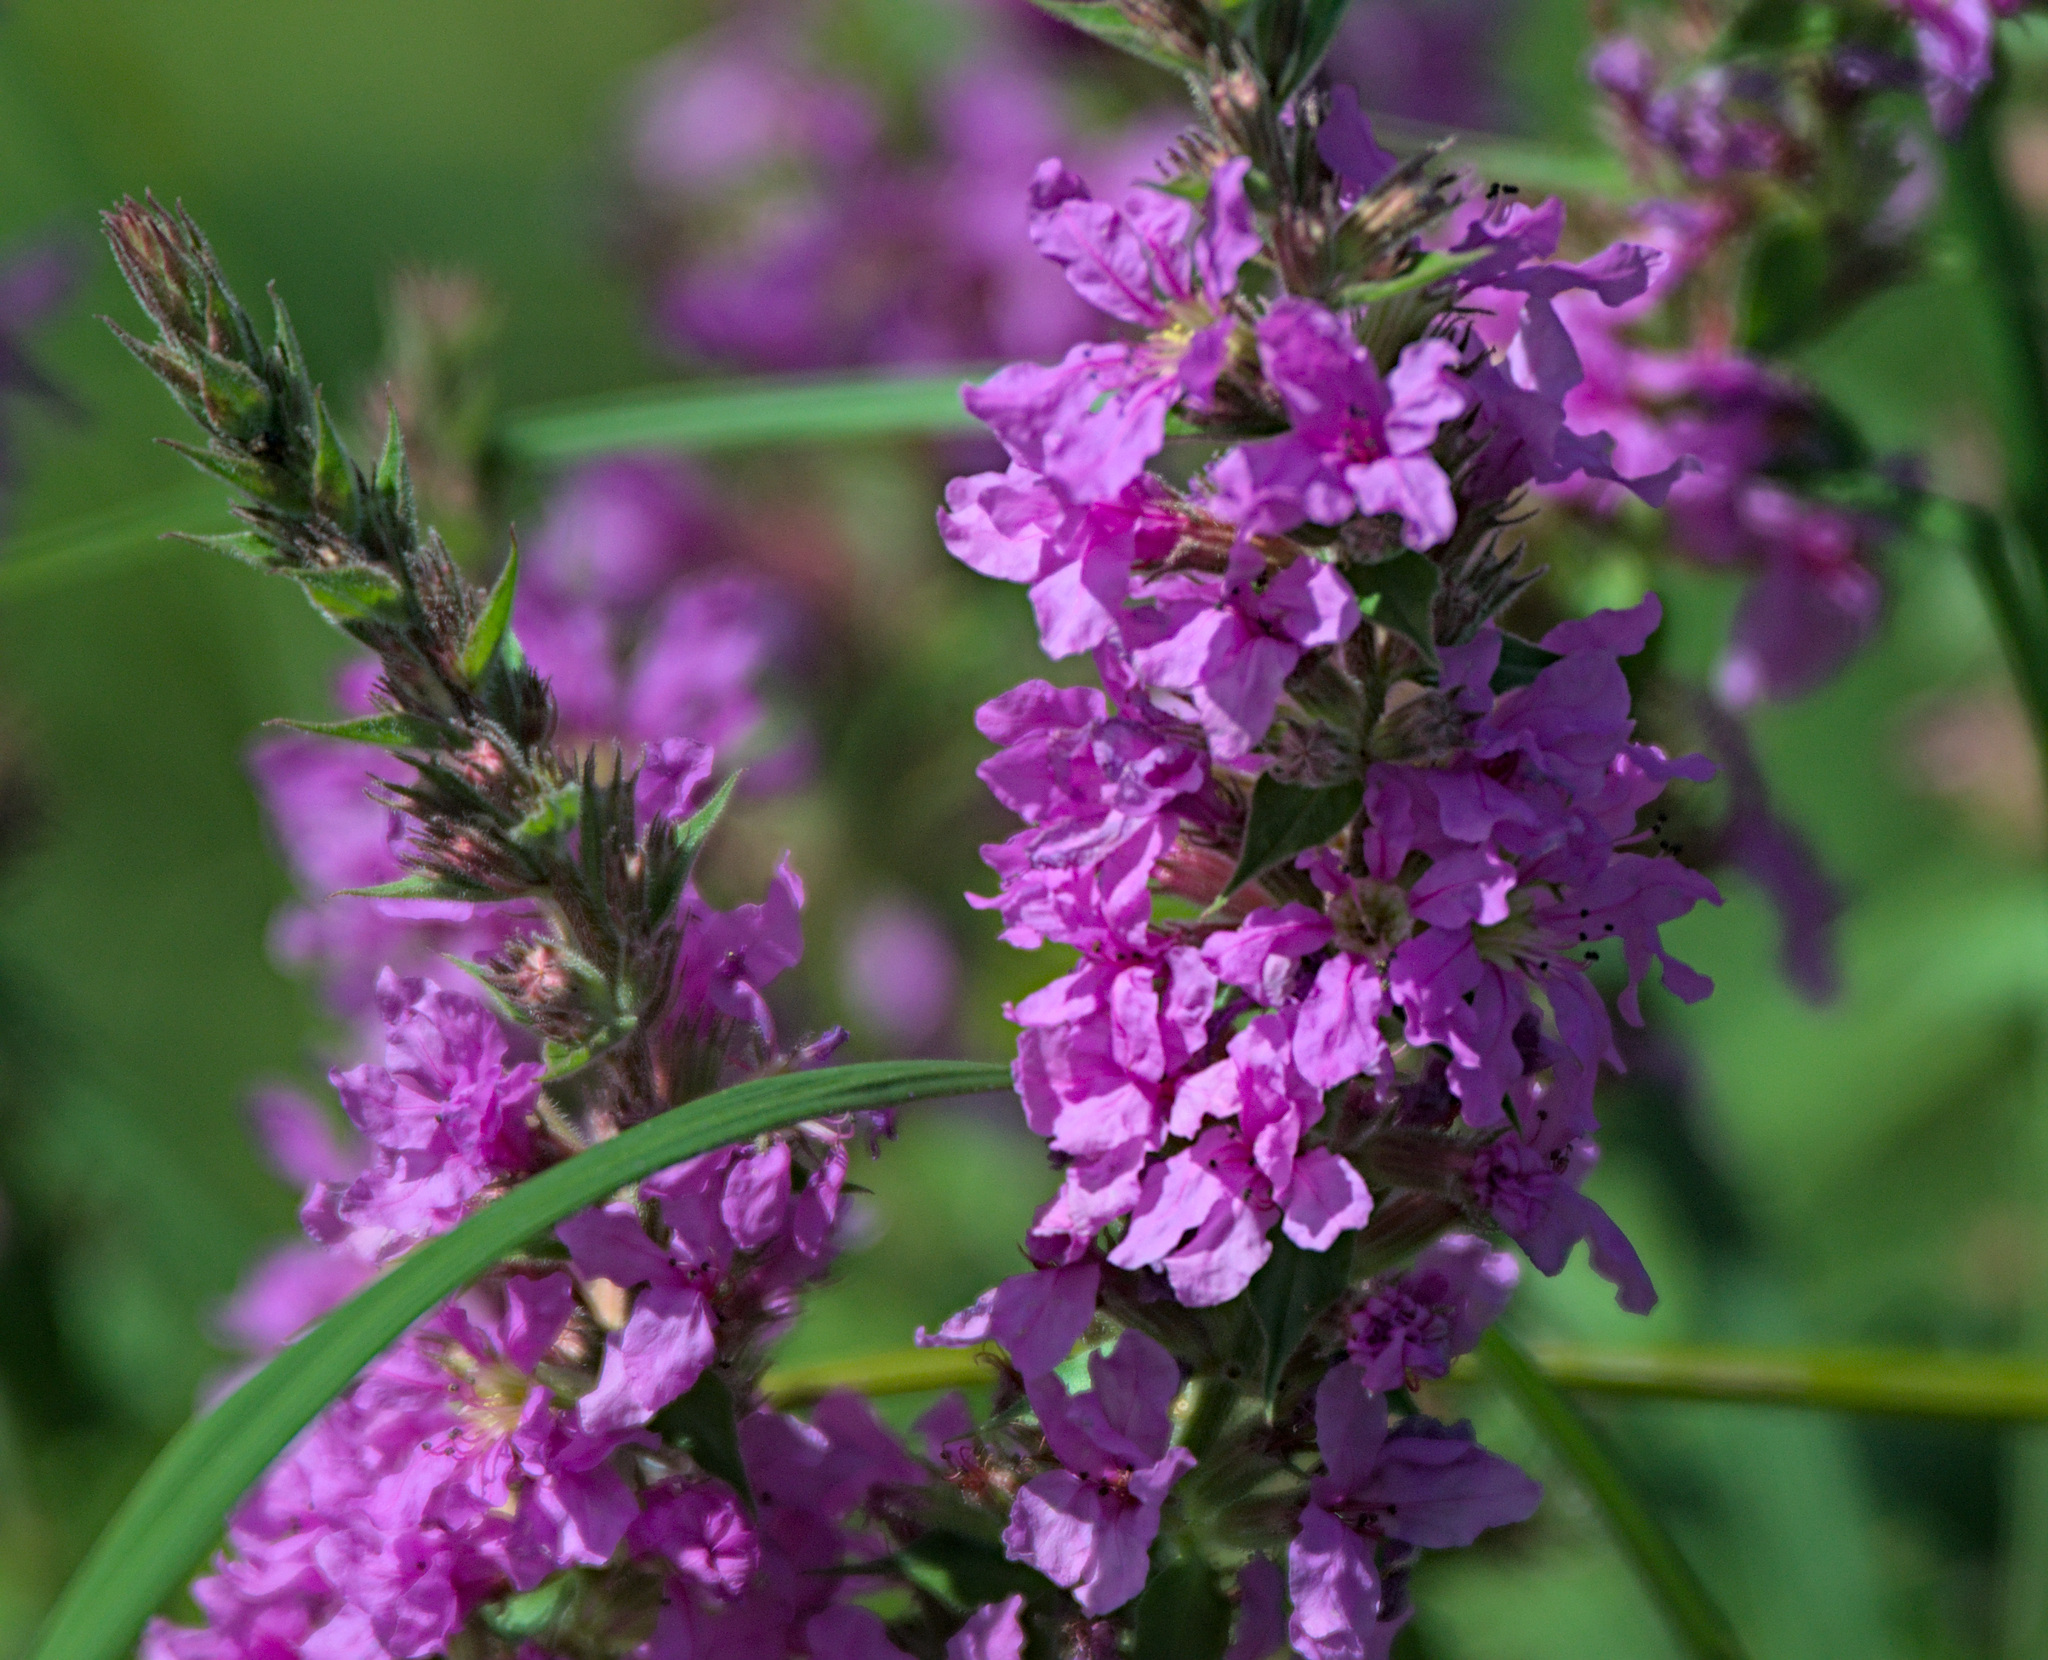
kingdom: Plantae
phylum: Tracheophyta
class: Magnoliopsida
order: Myrtales
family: Lythraceae
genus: Lythrum
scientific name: Lythrum salicaria
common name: Purple loosestrife
